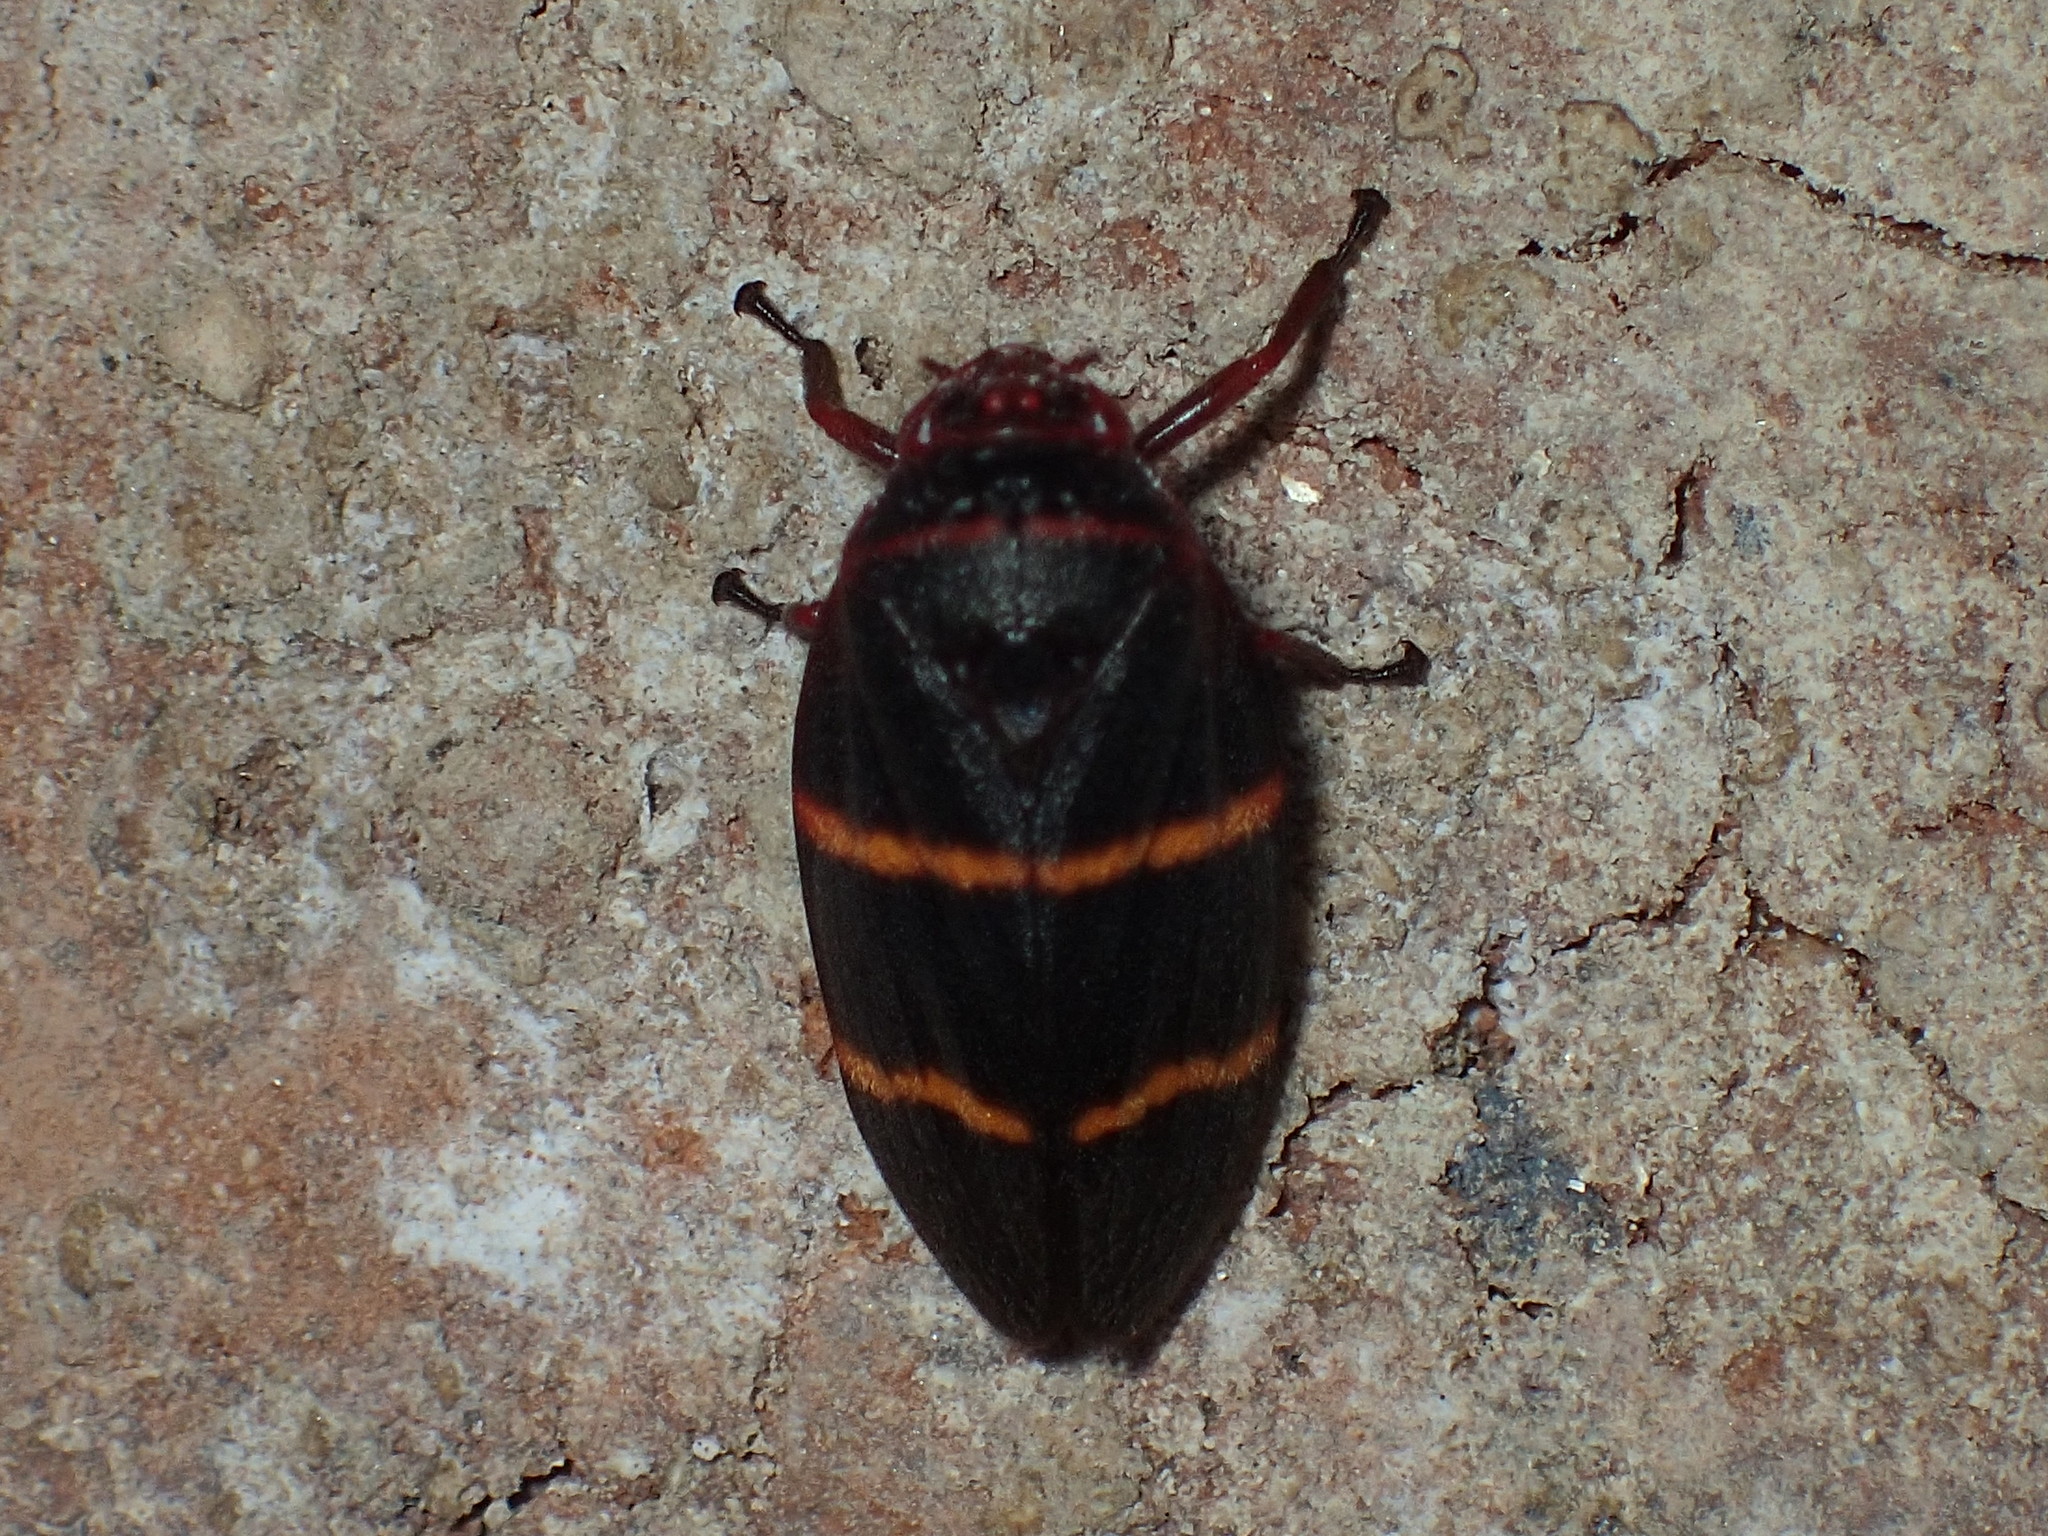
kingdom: Animalia
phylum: Arthropoda
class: Insecta
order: Hemiptera
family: Cercopidae
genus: Prosapia
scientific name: Prosapia bicincta
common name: Twolined spittlebug
